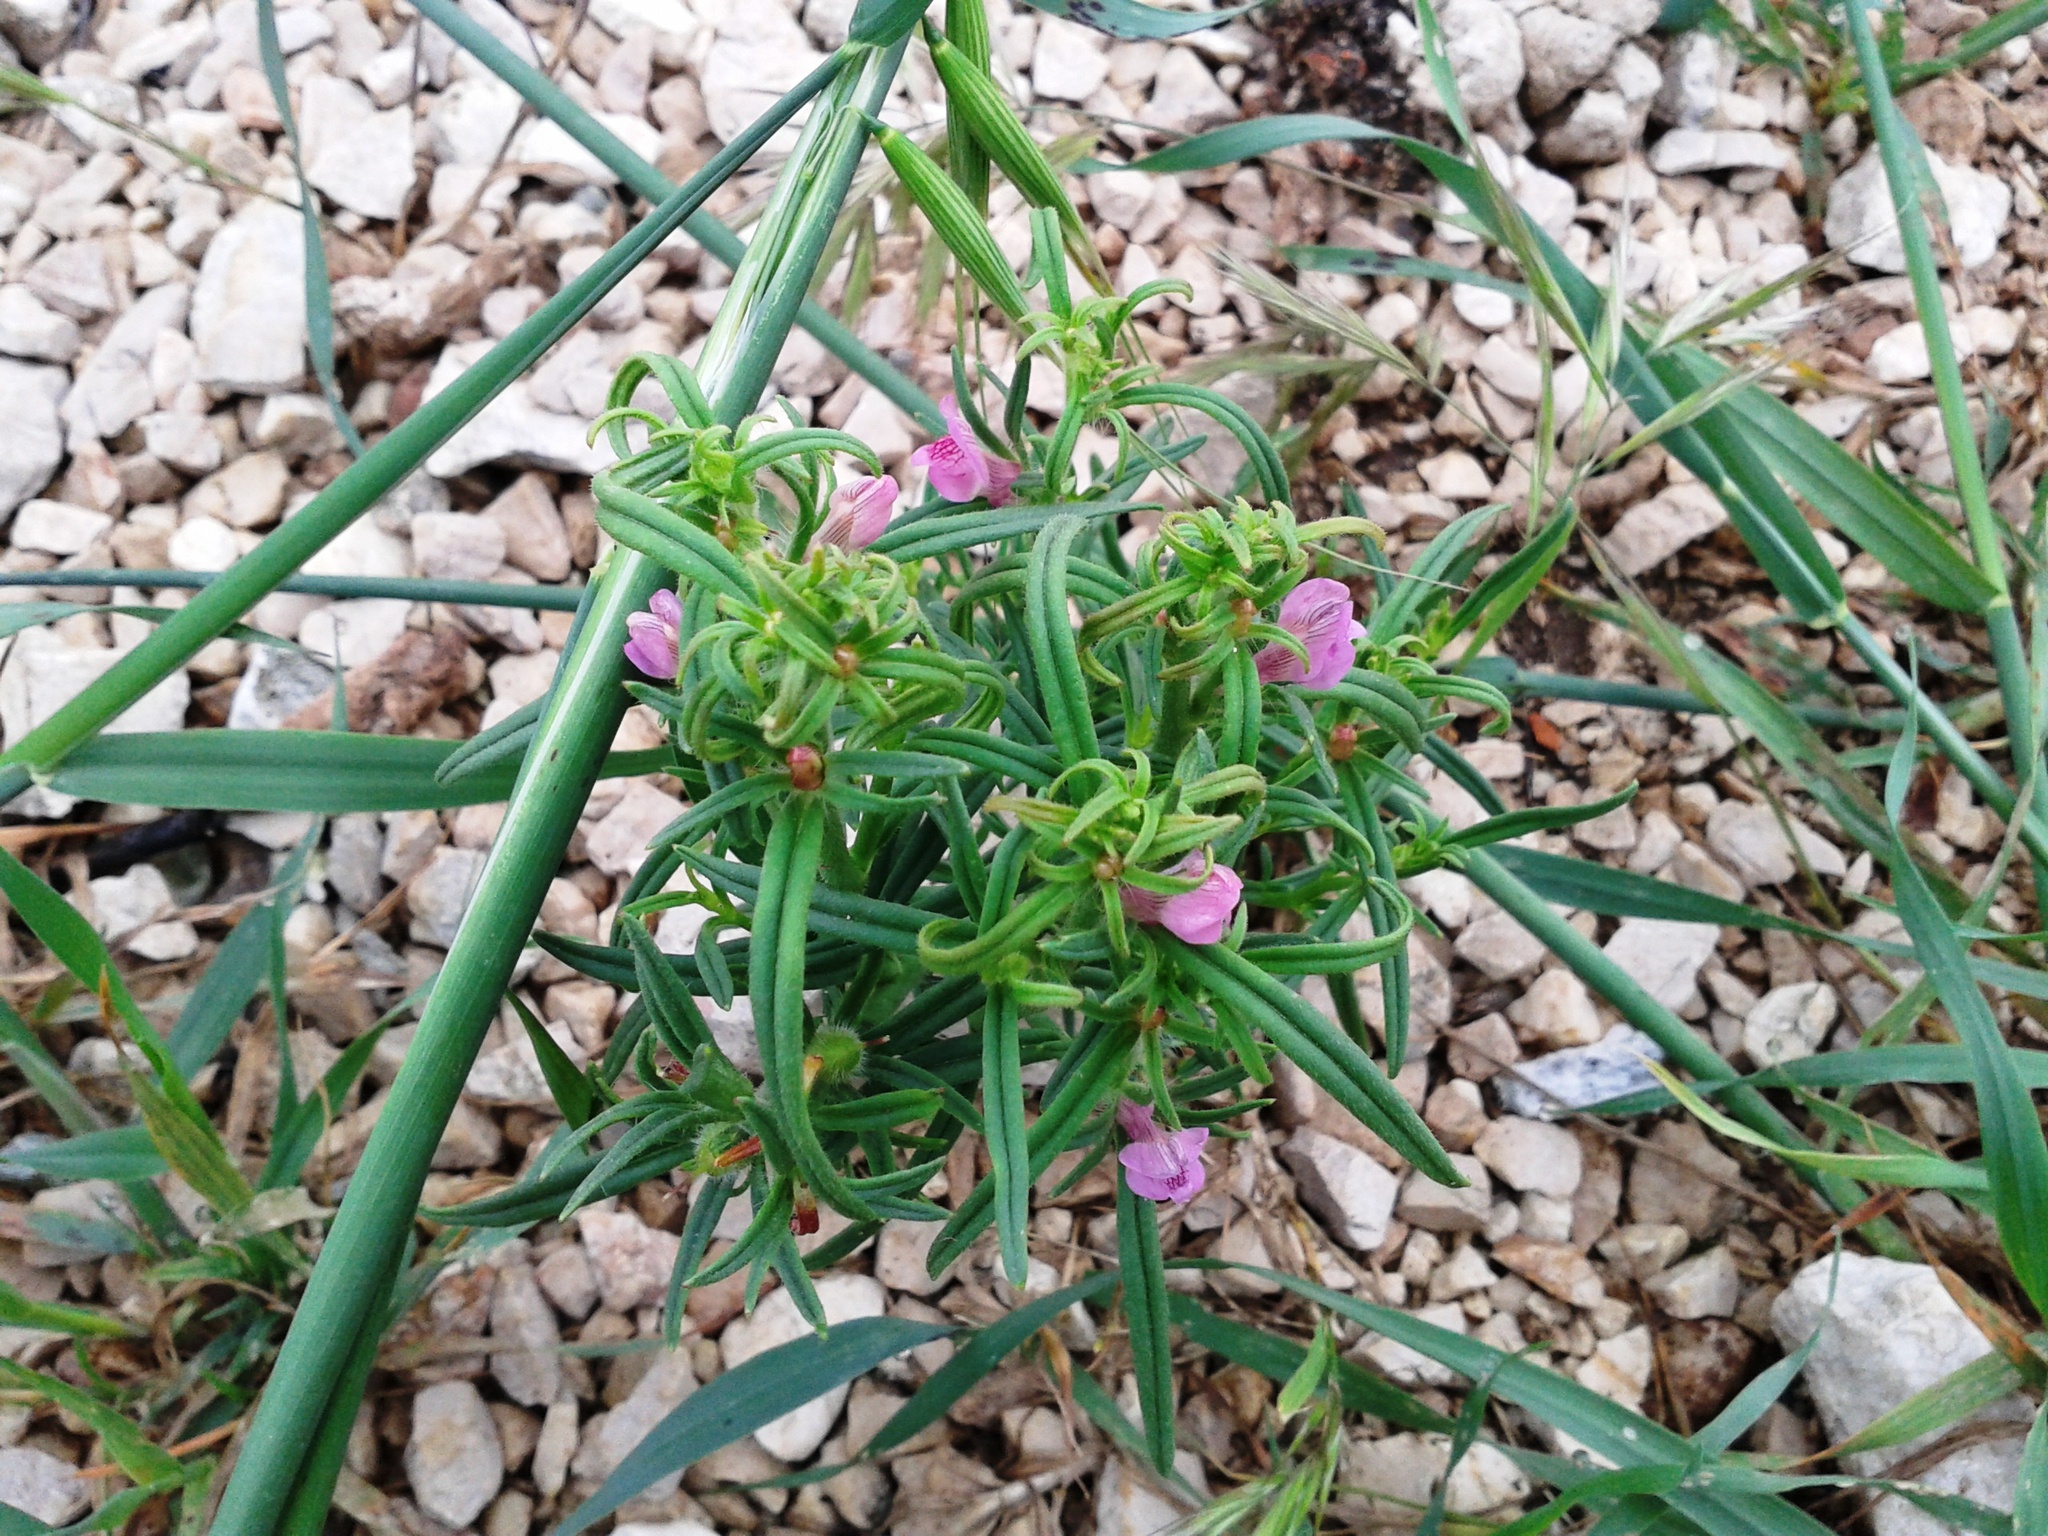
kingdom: Plantae
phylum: Tracheophyta
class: Magnoliopsida
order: Lamiales
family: Plantaginaceae
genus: Misopates
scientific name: Misopates orontium
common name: Weasel's-snout
